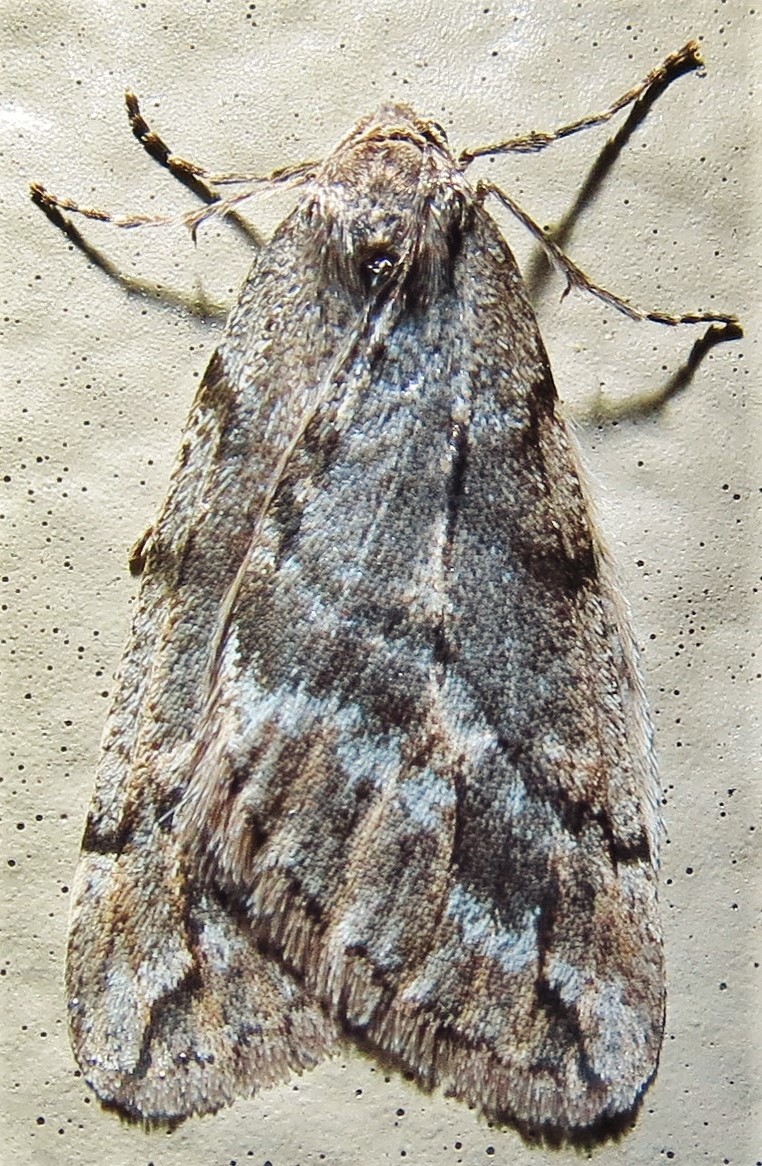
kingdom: Animalia
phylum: Arthropoda
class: Insecta
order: Lepidoptera
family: Geometridae
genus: Paleacrita
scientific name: Paleacrita vernata
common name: Spring cankerworm
